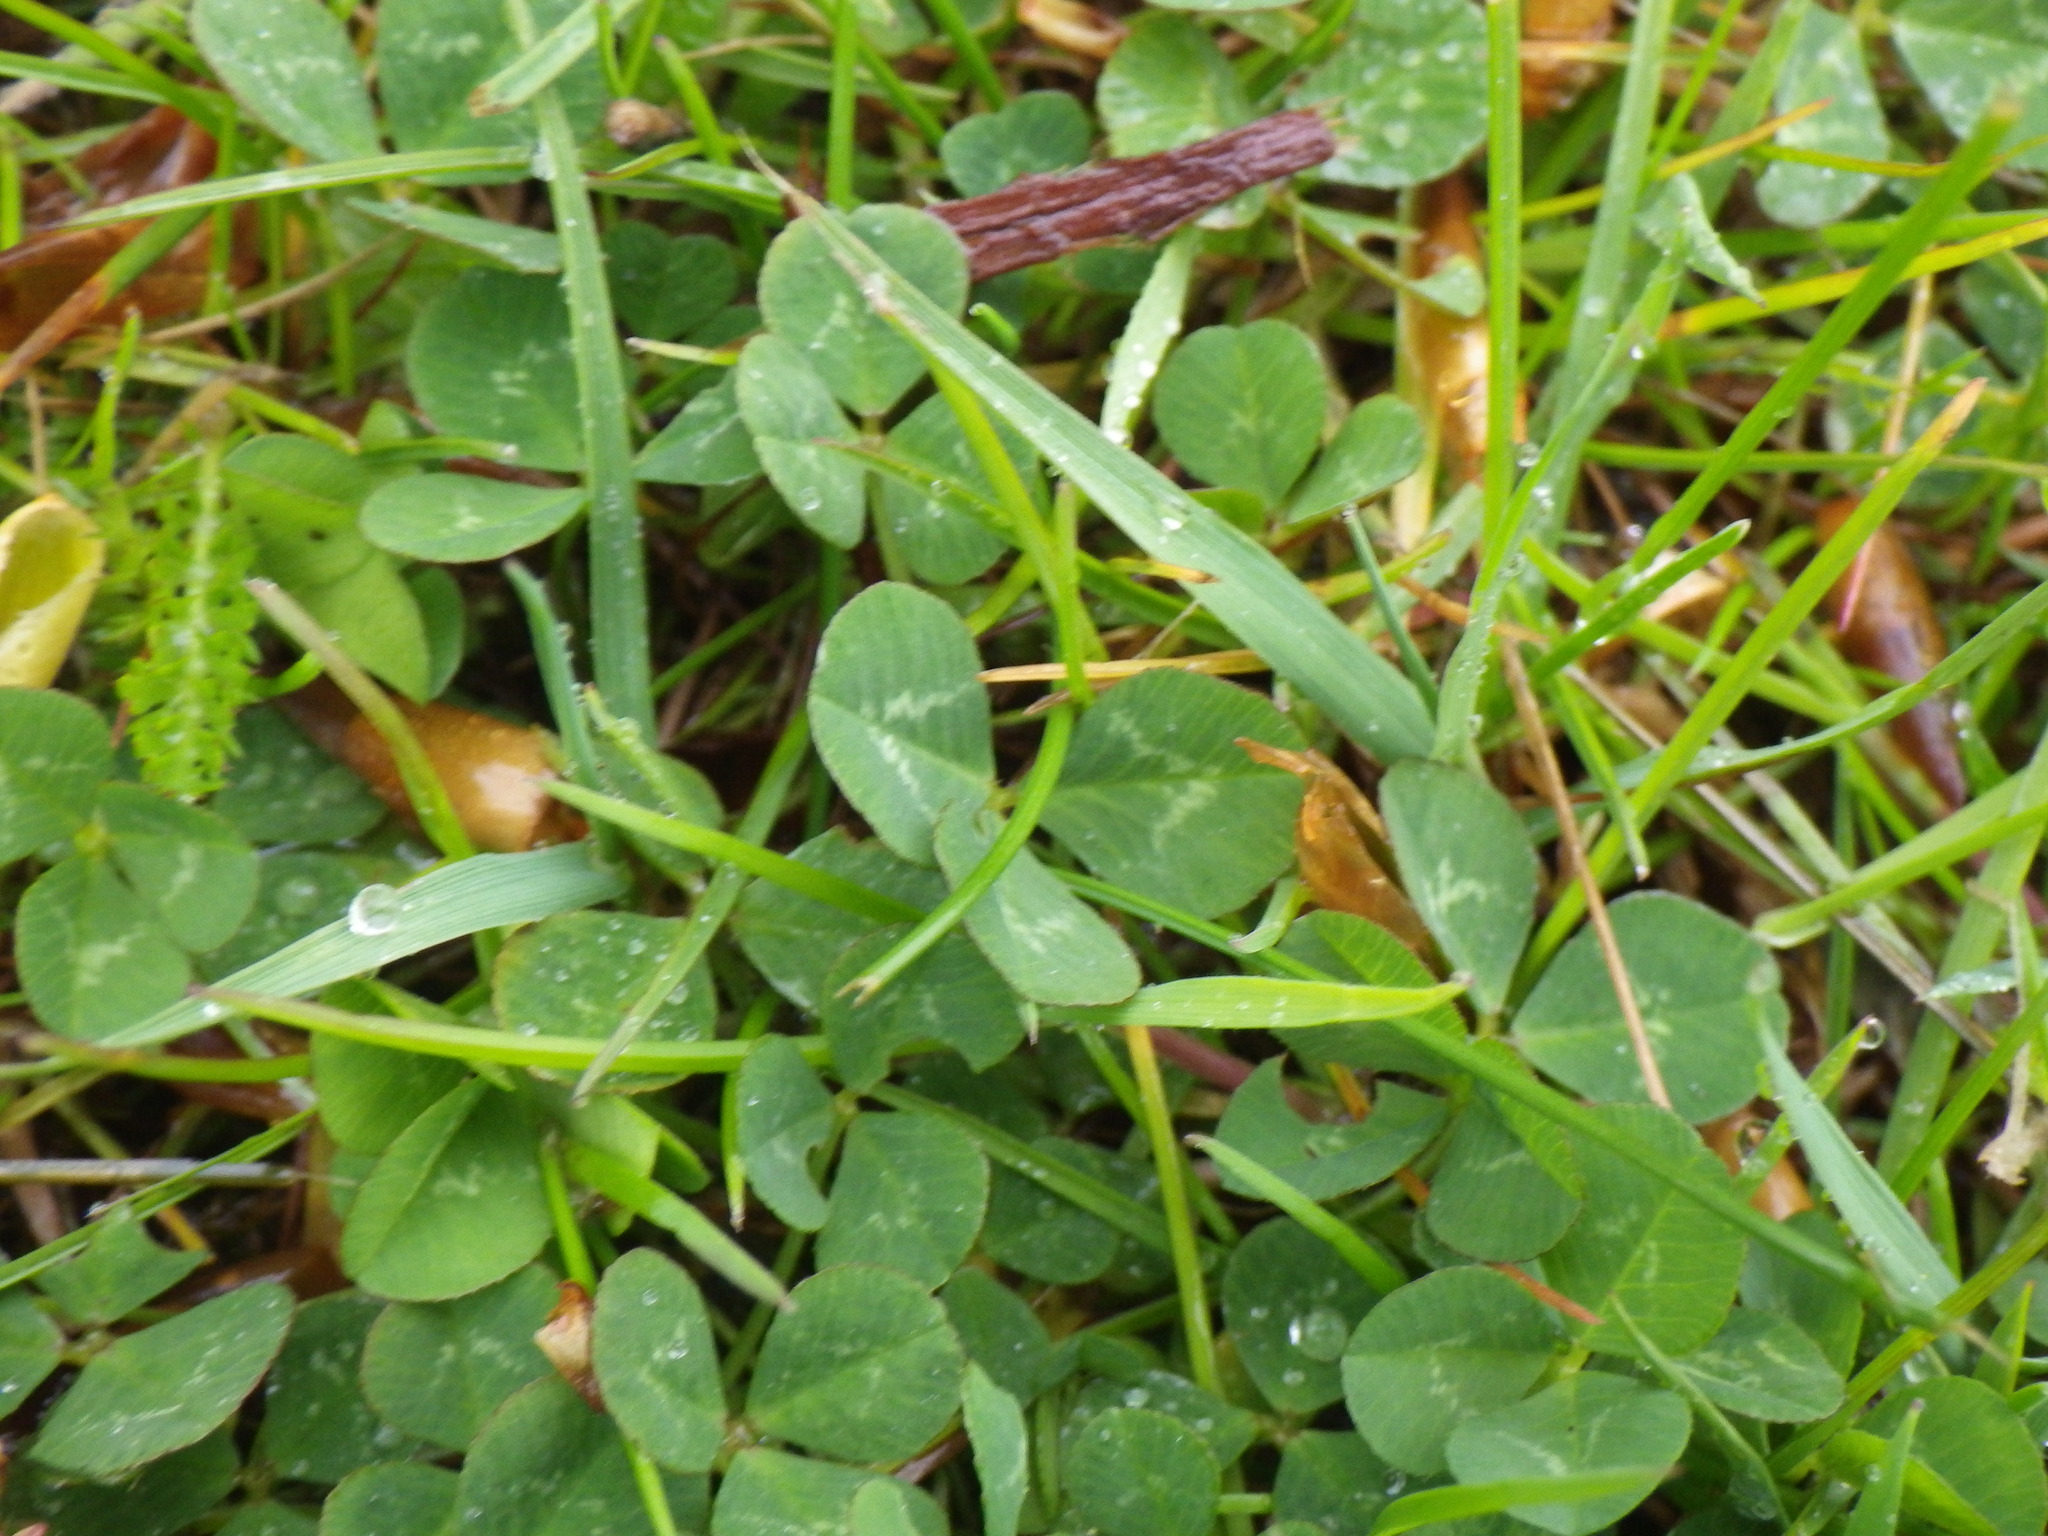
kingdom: Plantae
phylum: Tracheophyta
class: Magnoliopsida
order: Fabales
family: Fabaceae
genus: Trifolium
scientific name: Trifolium repens
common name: White clover
